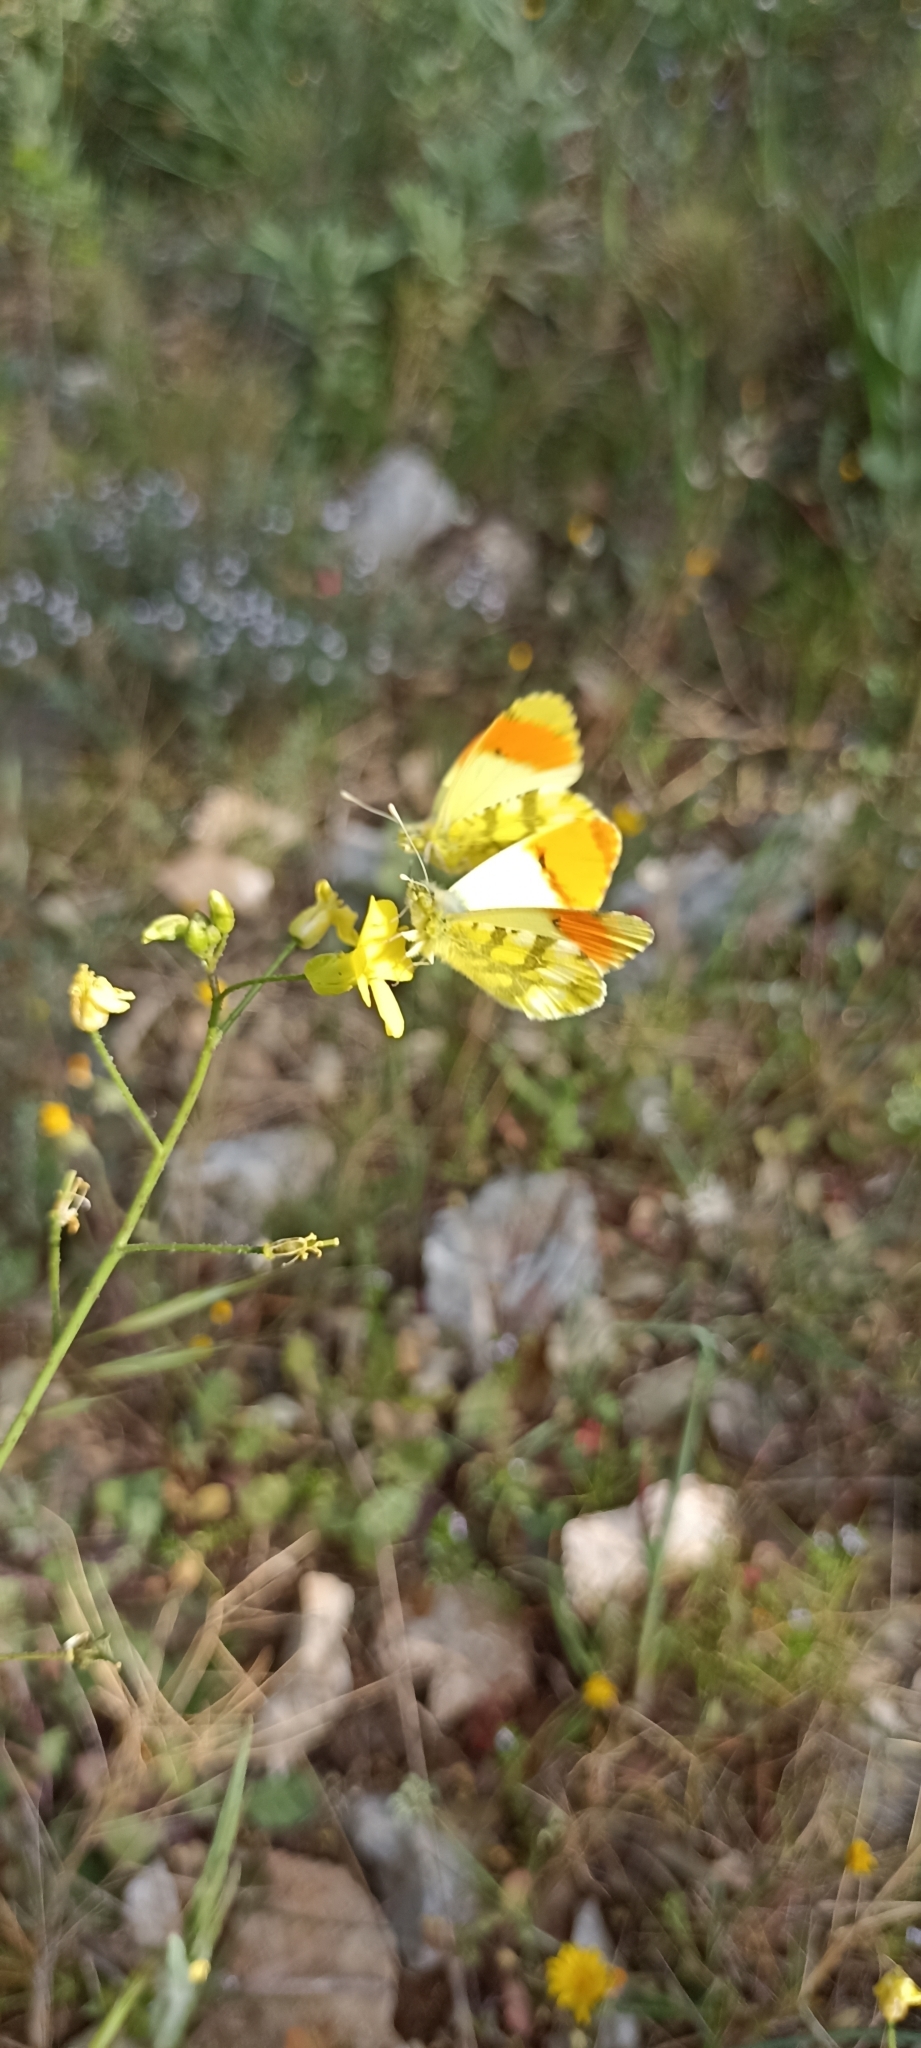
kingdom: Animalia
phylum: Arthropoda
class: Insecta
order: Lepidoptera
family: Pieridae
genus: Anthocharis
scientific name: Anthocharis euphenoides
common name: Provence orange-tip
